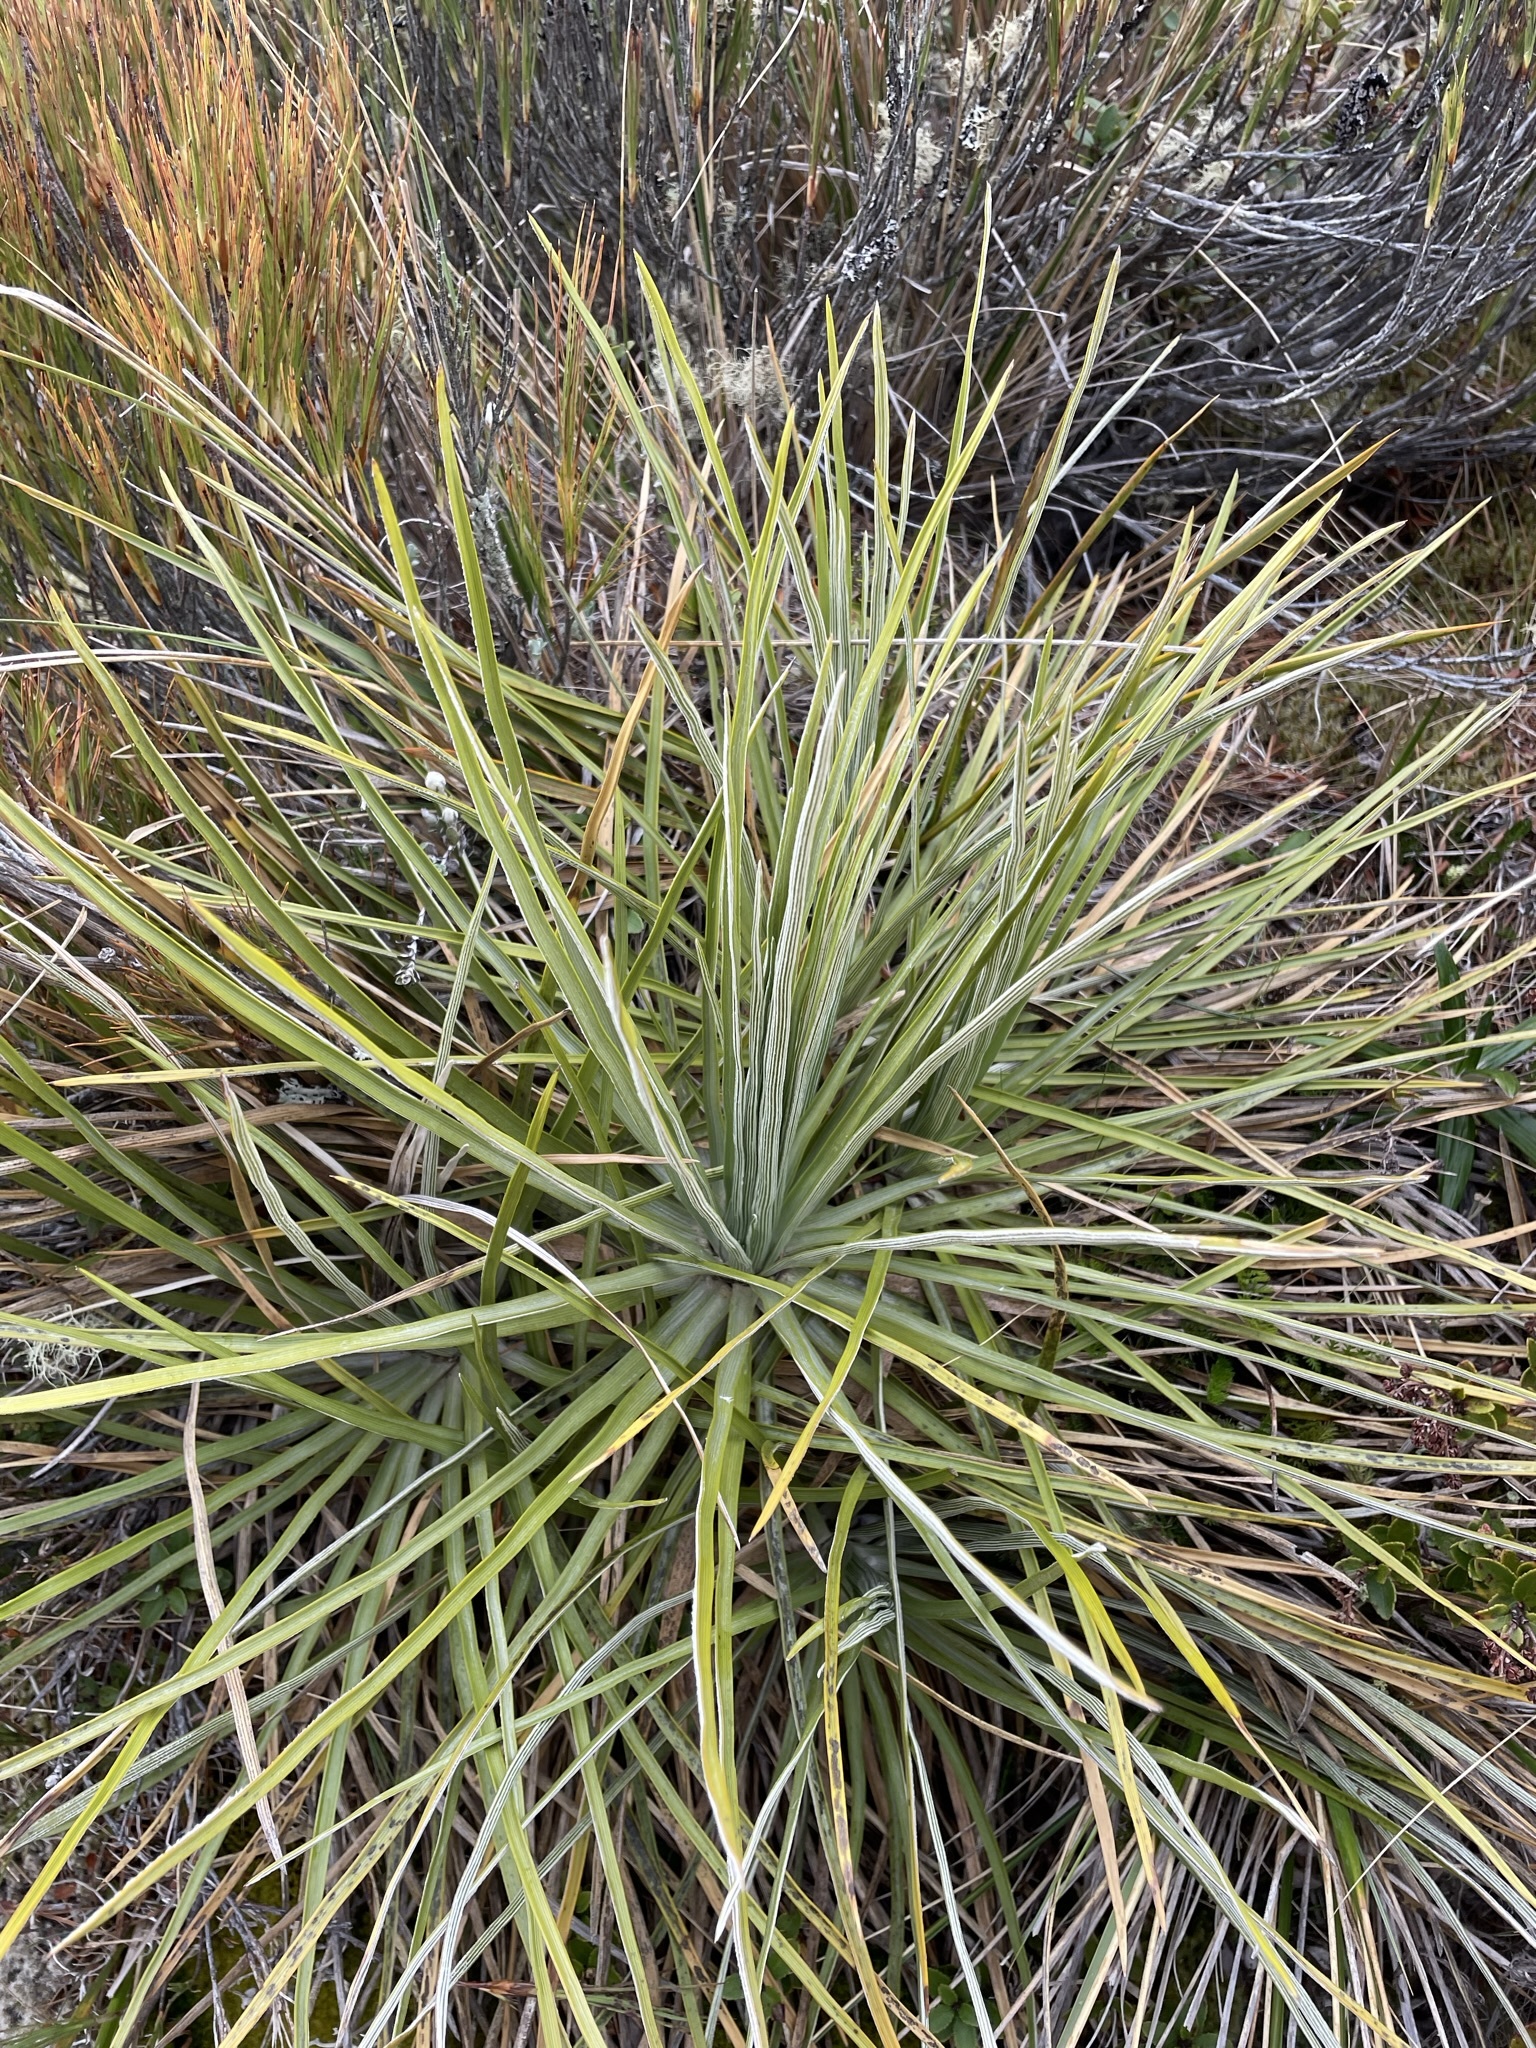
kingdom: Plantae
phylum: Tracheophyta
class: Magnoliopsida
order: Asterales
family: Asteraceae
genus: Celmisia
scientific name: Celmisia lyallii
